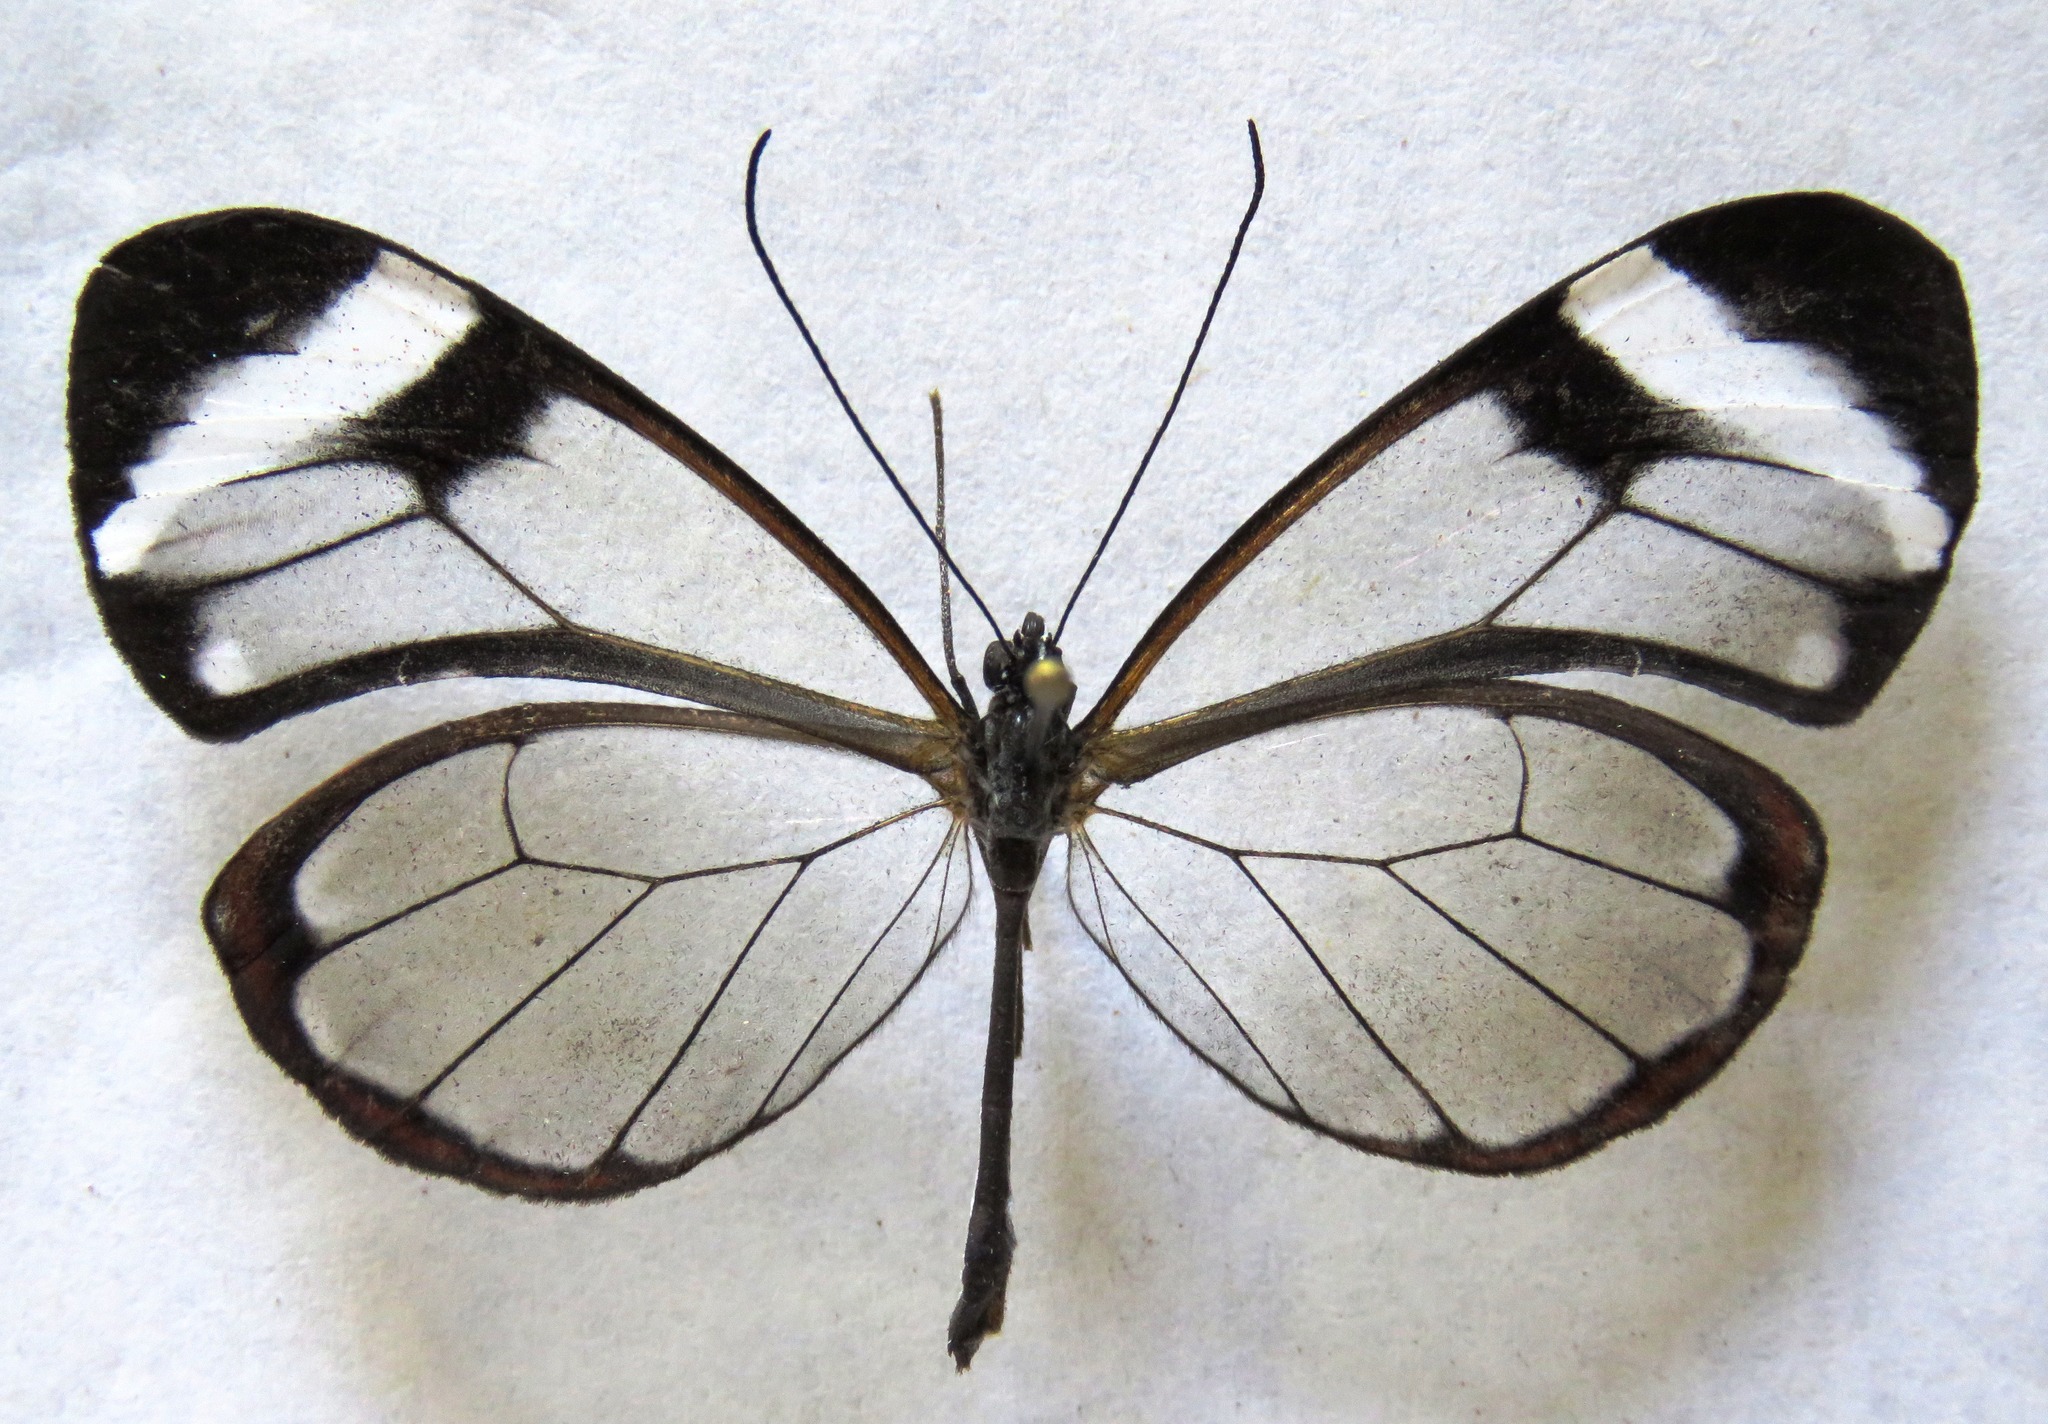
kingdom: Animalia
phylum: Arthropoda
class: Insecta
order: Lepidoptera
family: Nymphalidae
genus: Greta
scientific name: Greta morgane
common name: Thick-tipped greta
